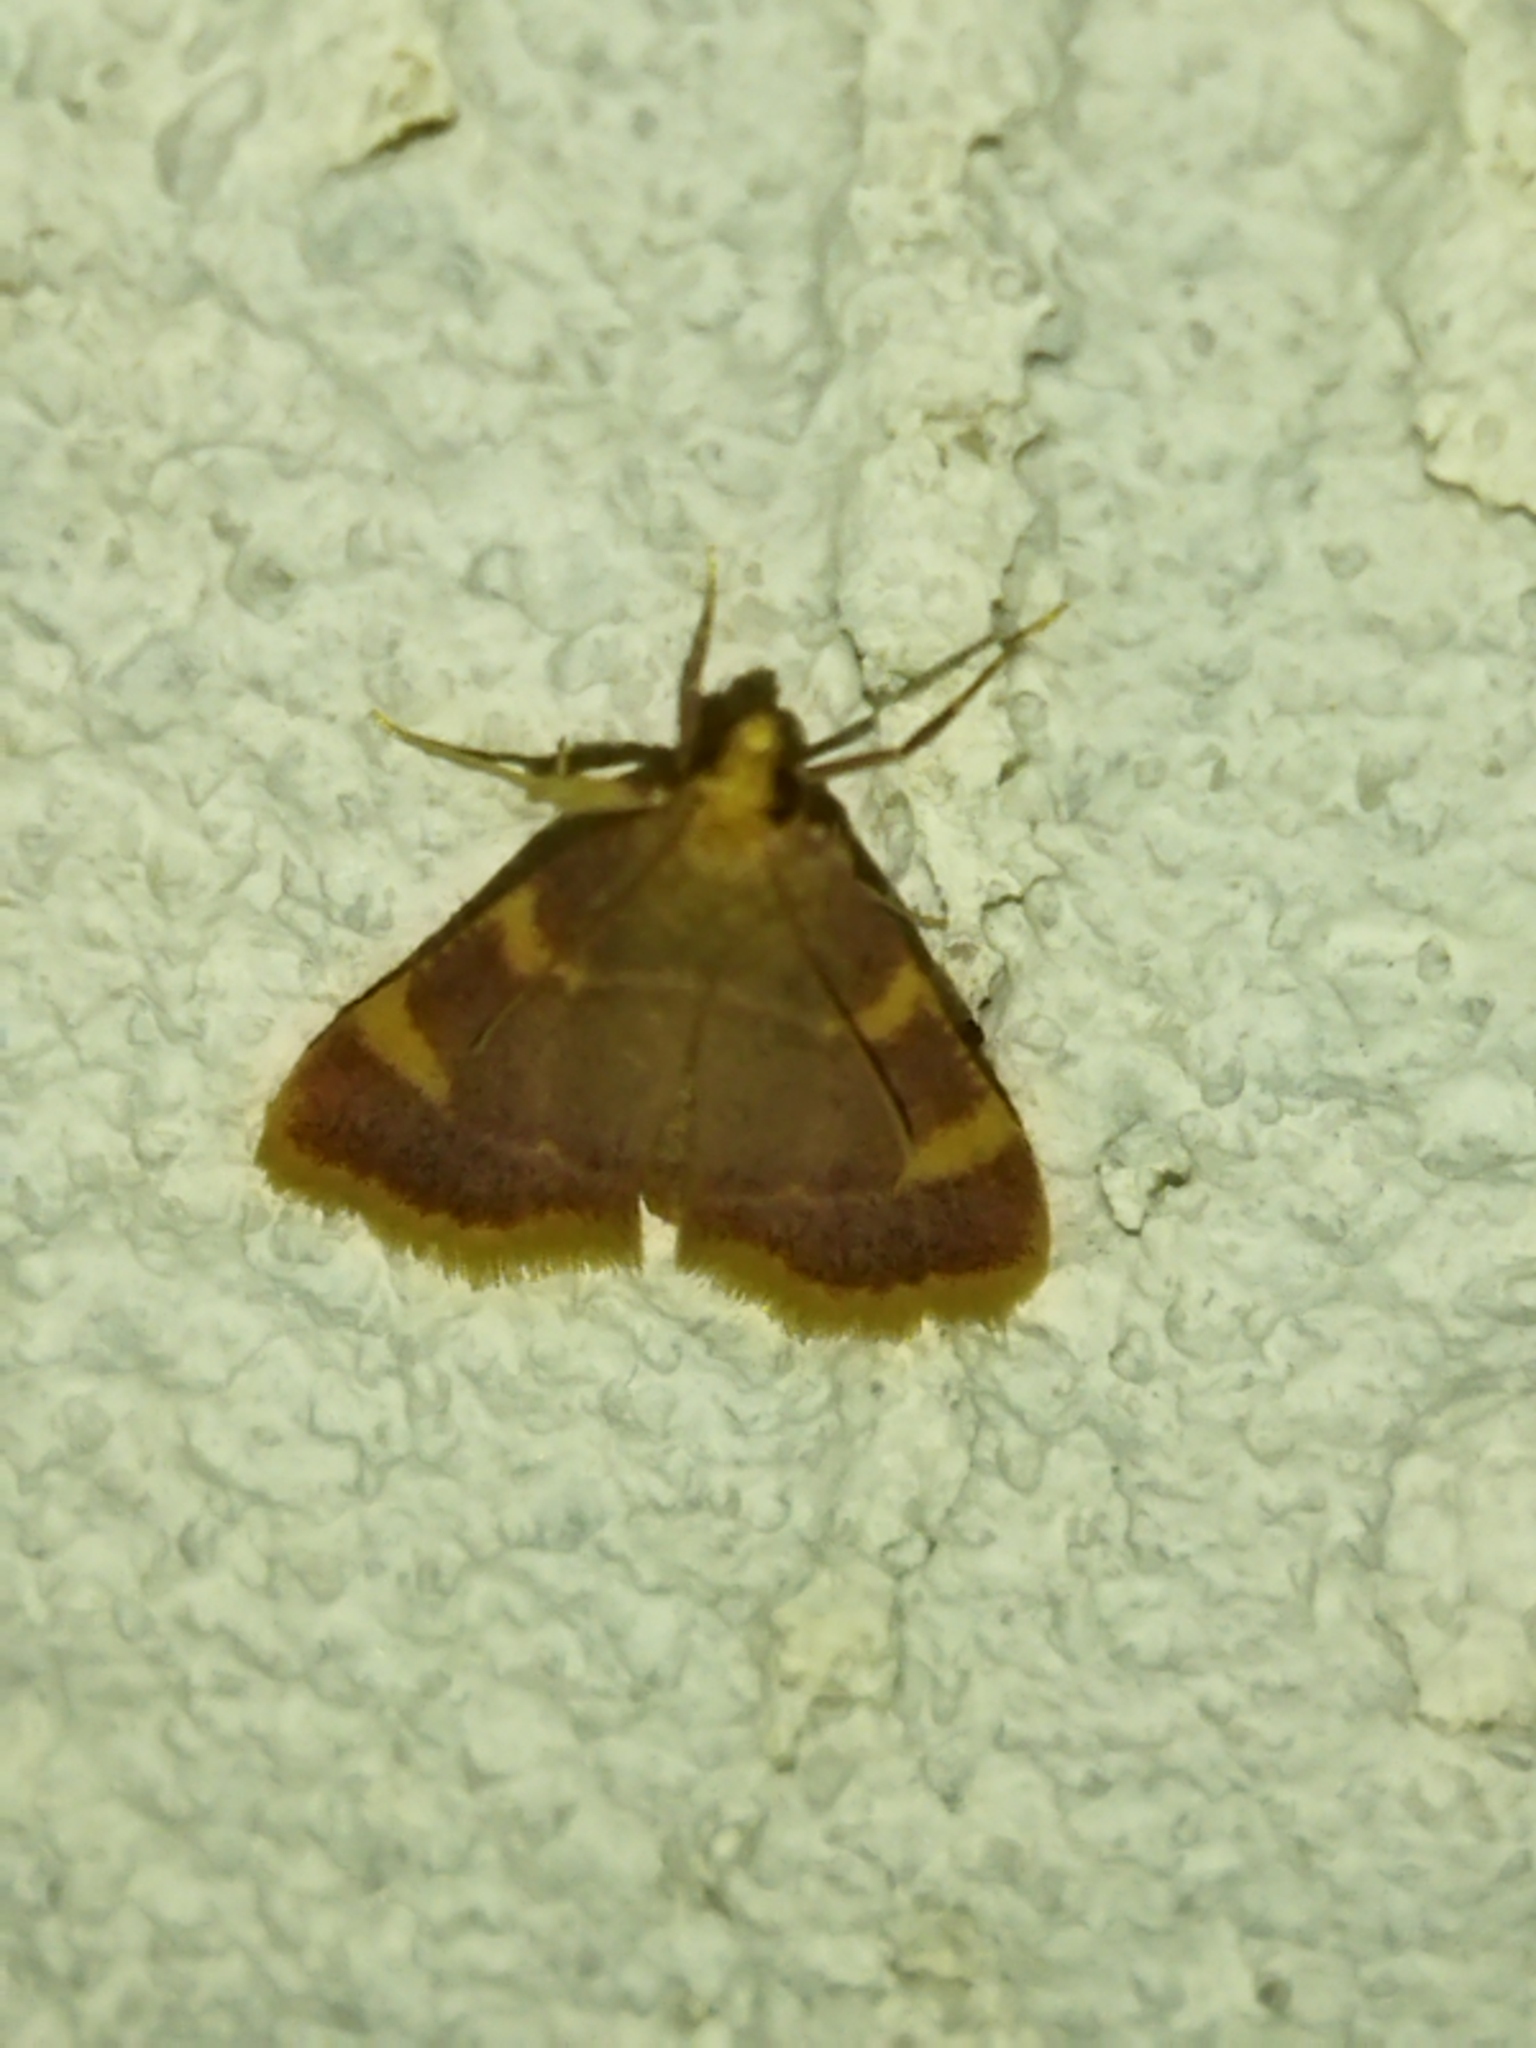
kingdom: Animalia
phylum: Arthropoda
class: Insecta
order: Lepidoptera
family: Pyralidae
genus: Hypsopygia
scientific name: Hypsopygia costalis
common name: Gold triangle
